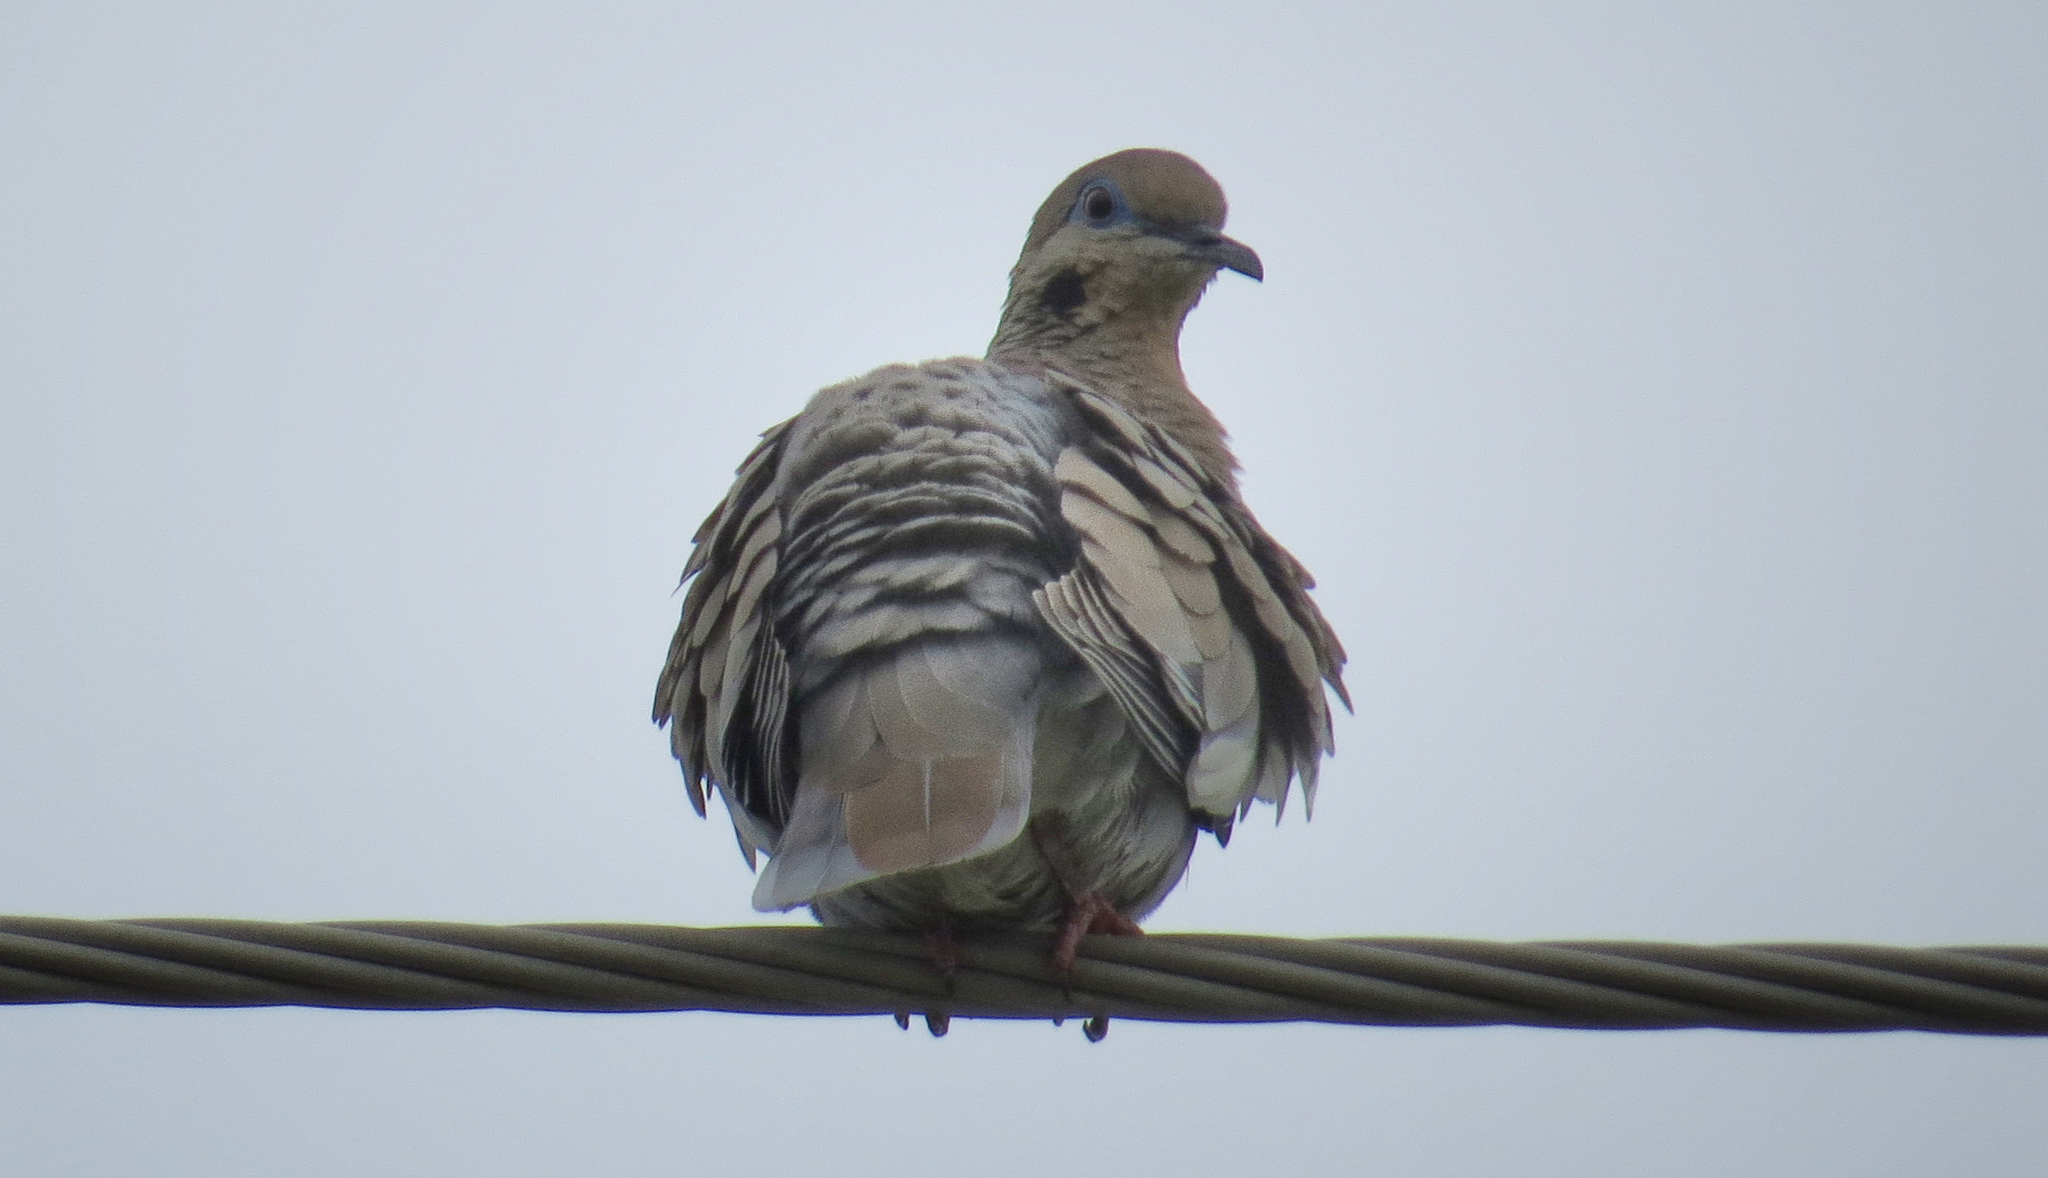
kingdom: Animalia
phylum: Chordata
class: Aves
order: Columbiformes
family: Columbidae
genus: Zenaida
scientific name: Zenaida asiatica
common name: White-winged dove
